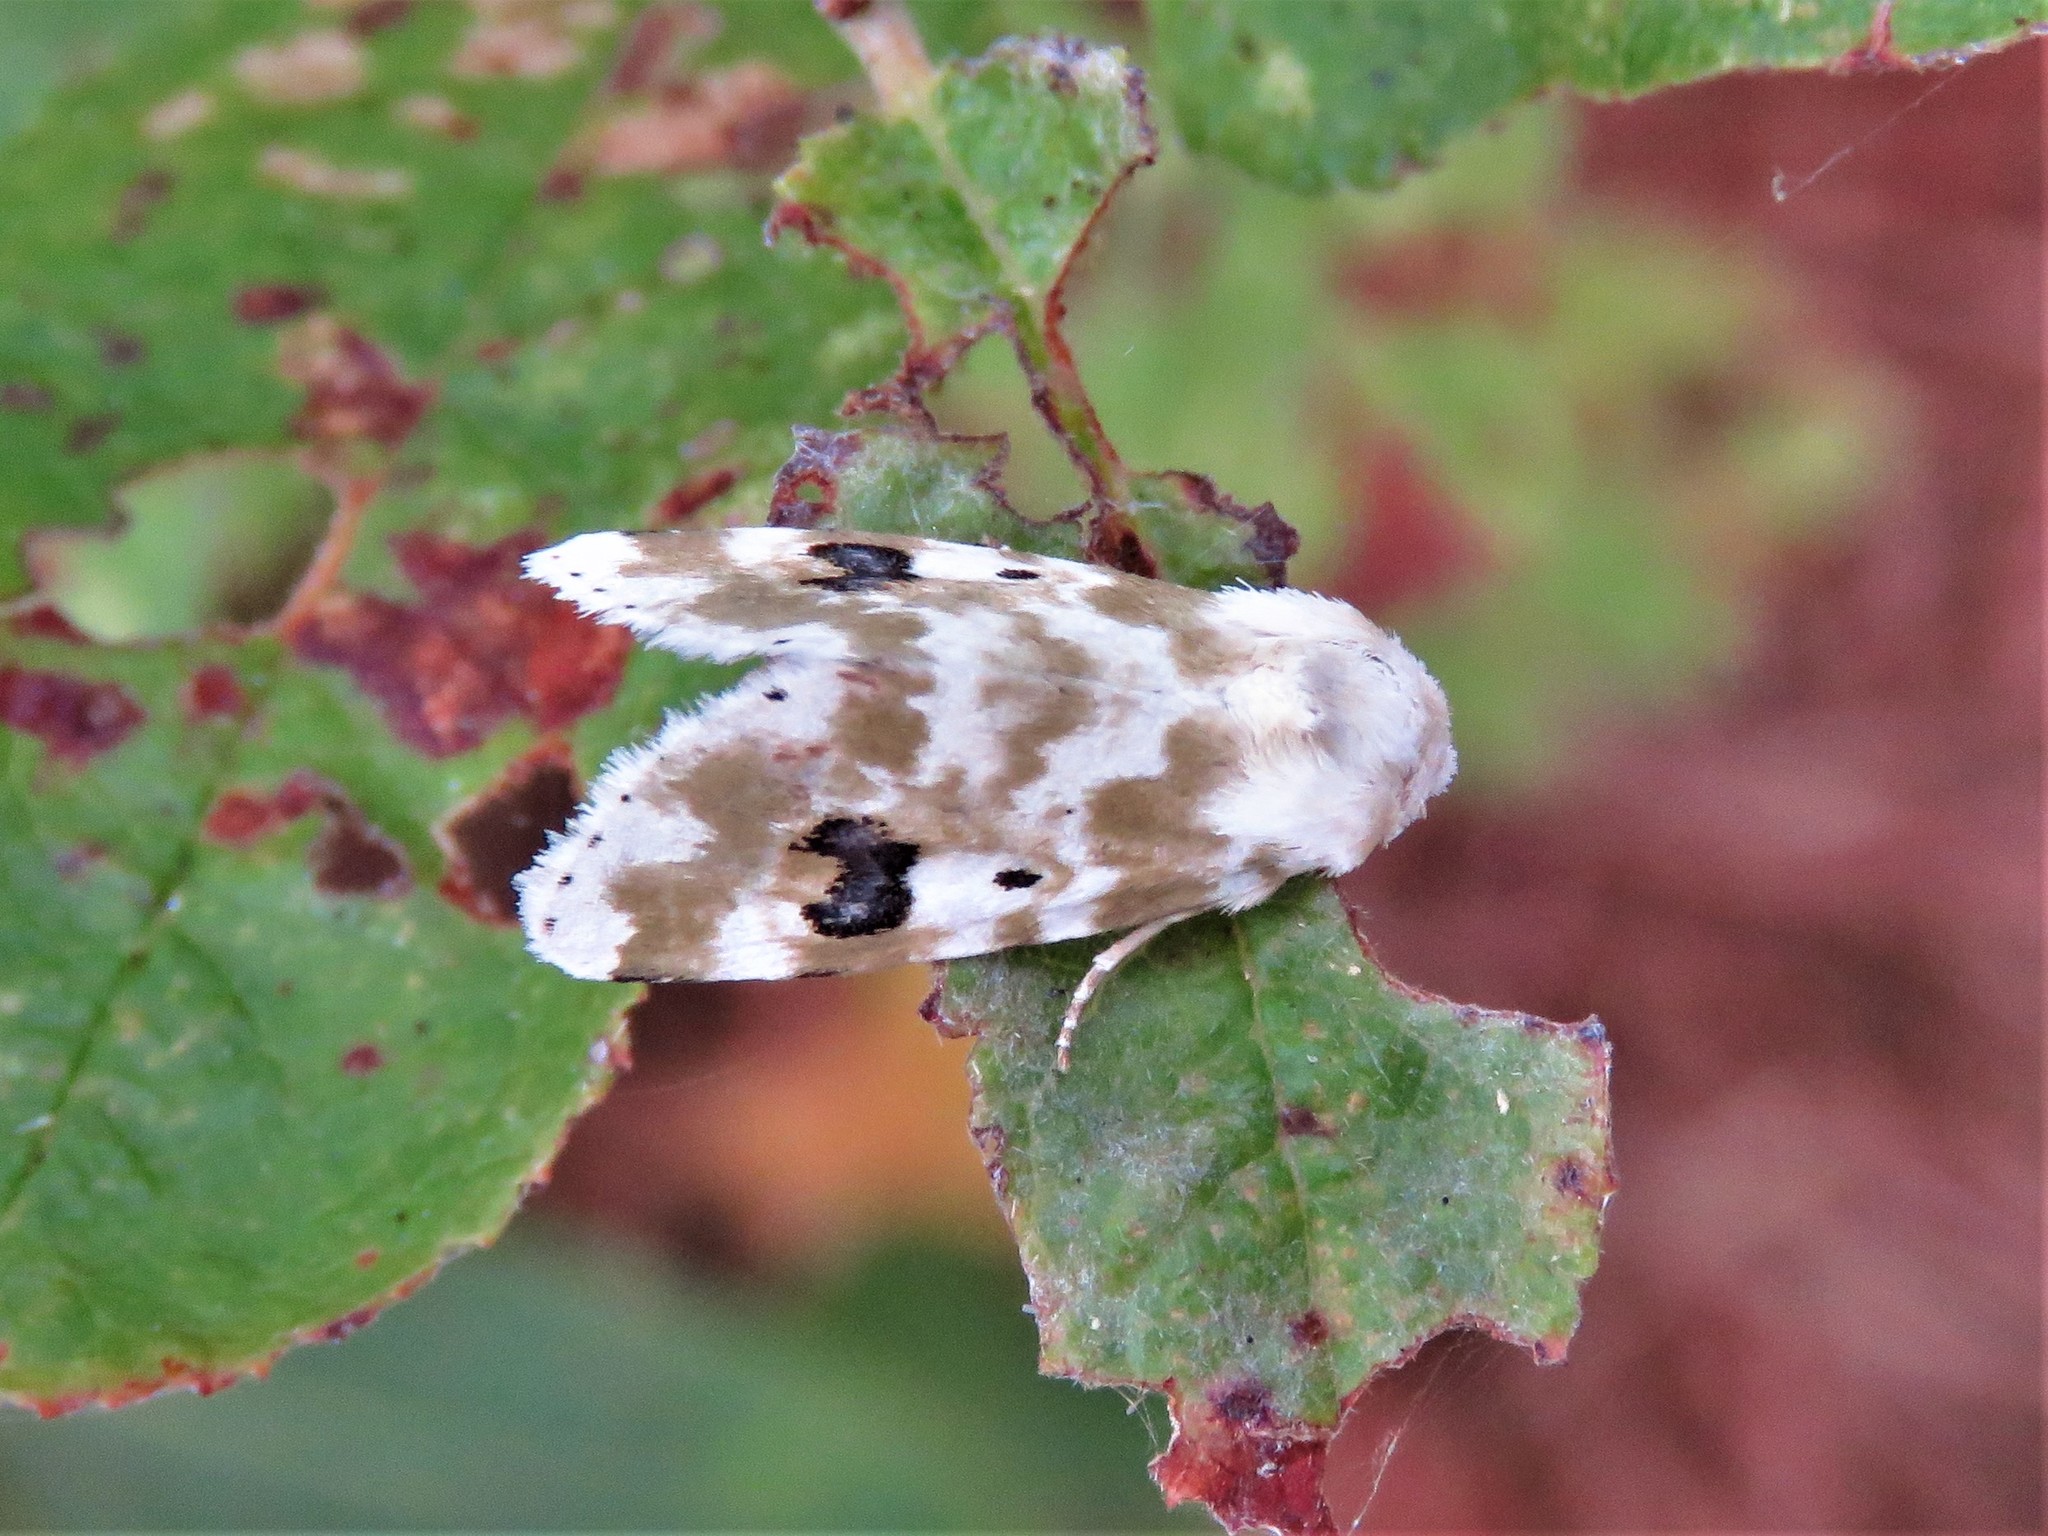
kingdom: Animalia
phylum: Arthropoda
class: Insecta
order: Lepidoptera
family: Noctuidae
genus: Schinia
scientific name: Schinia nundina
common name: Goldenrod flower moth
